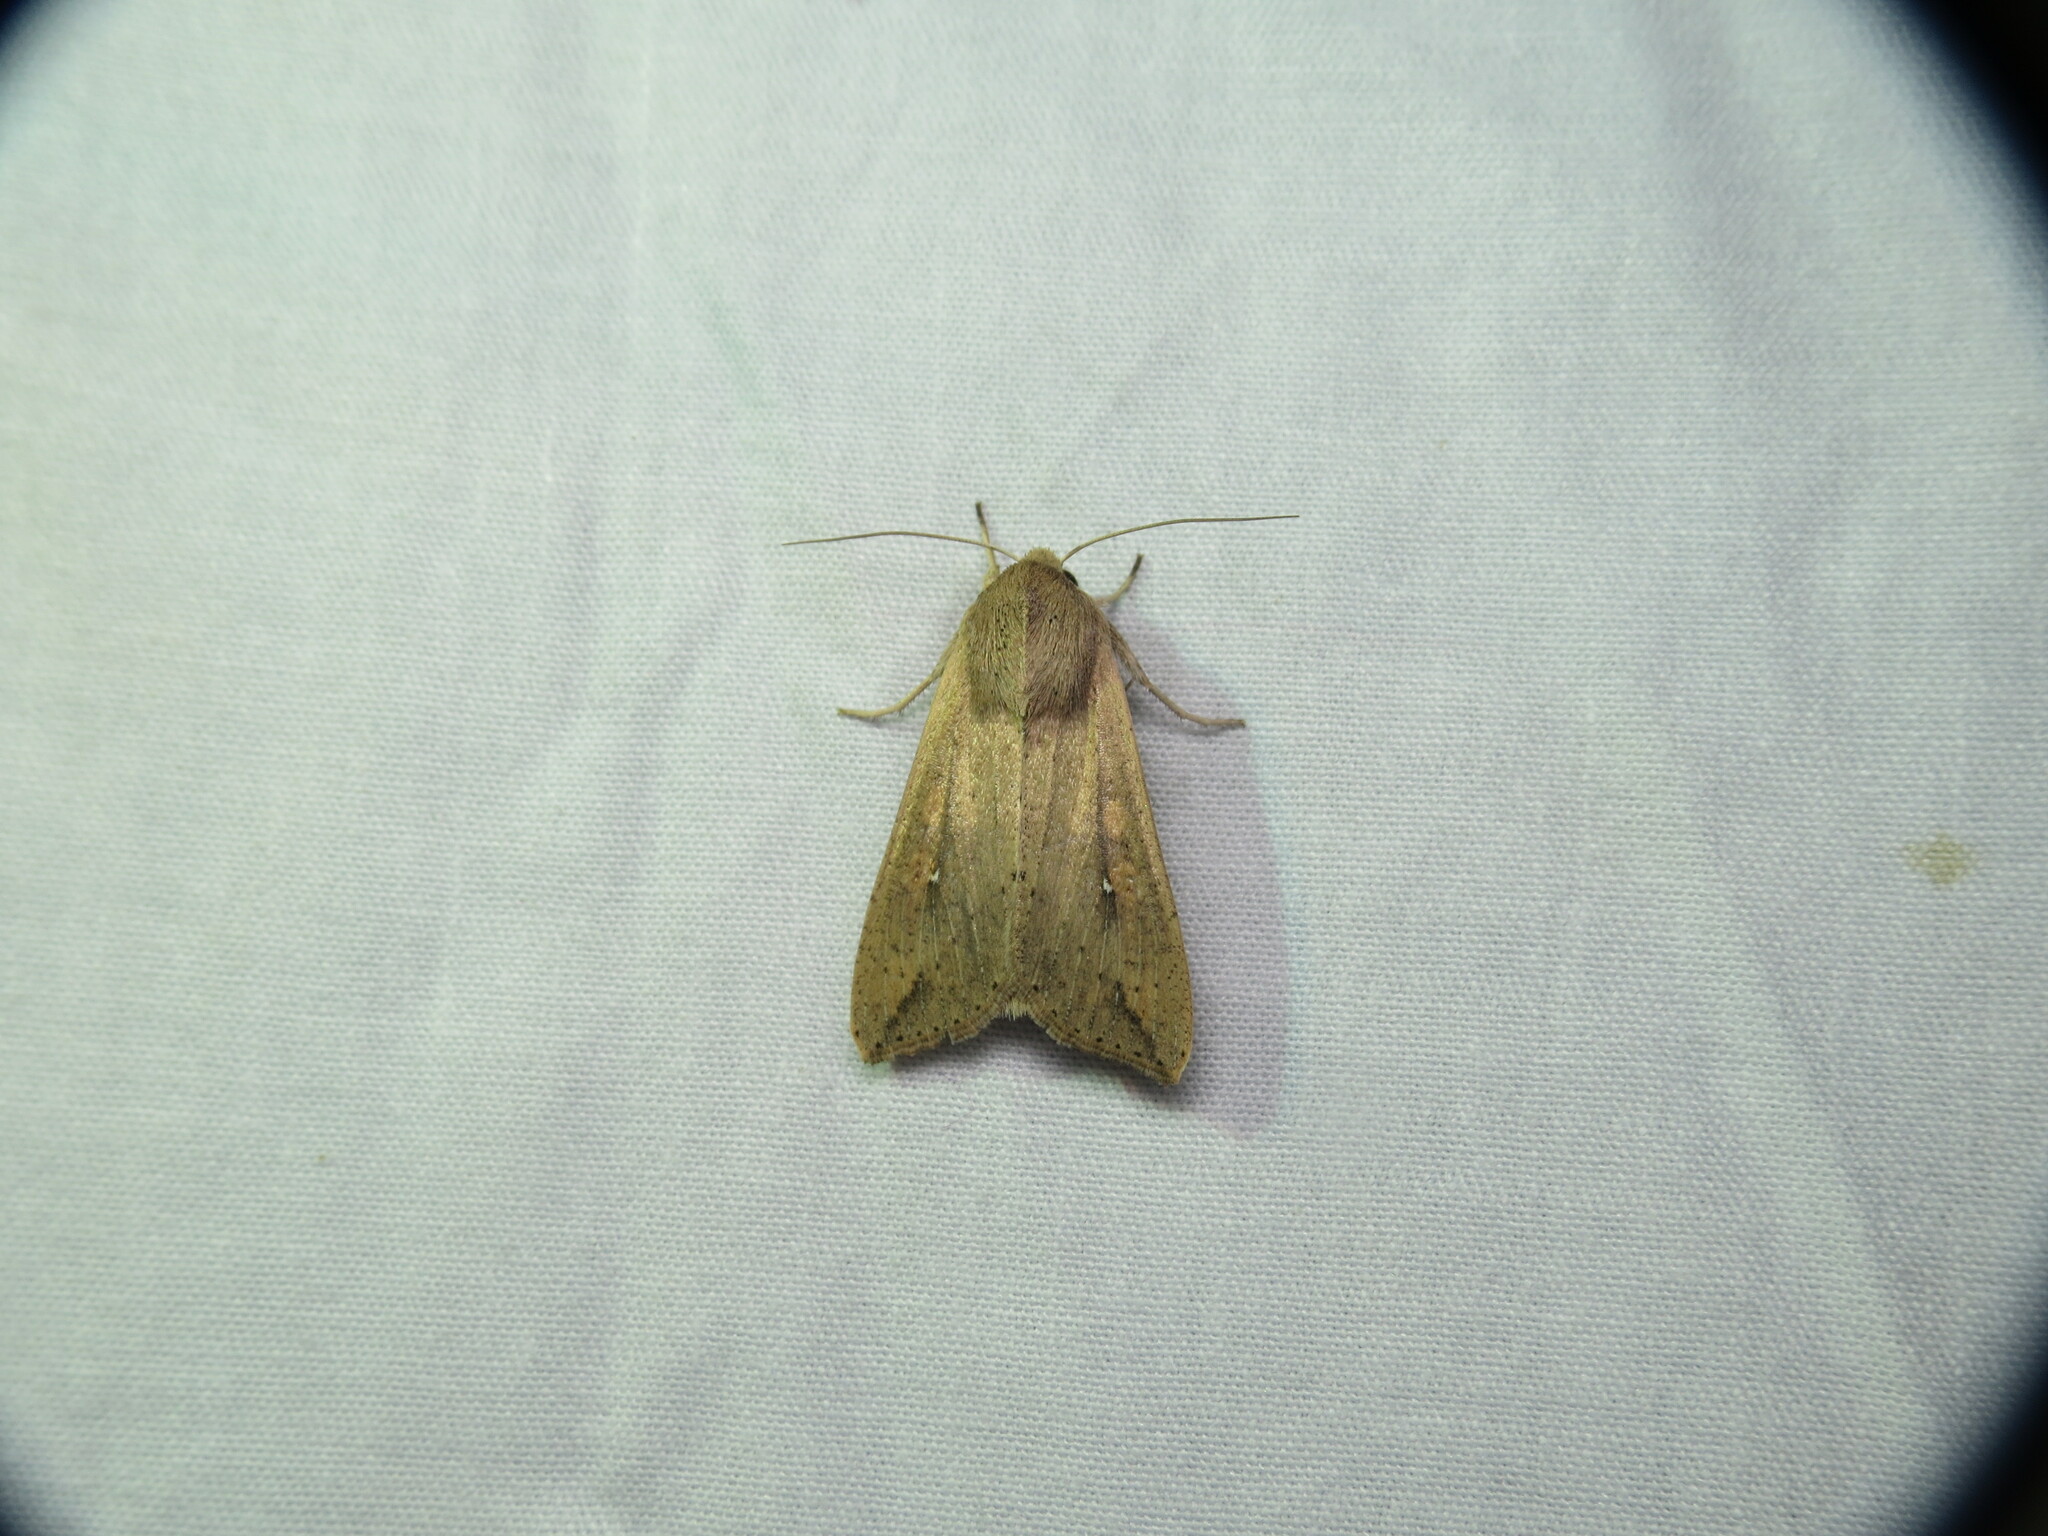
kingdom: Animalia
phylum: Arthropoda
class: Insecta
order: Lepidoptera
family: Noctuidae
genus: Mythimna
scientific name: Mythimna unipuncta
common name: White-speck
